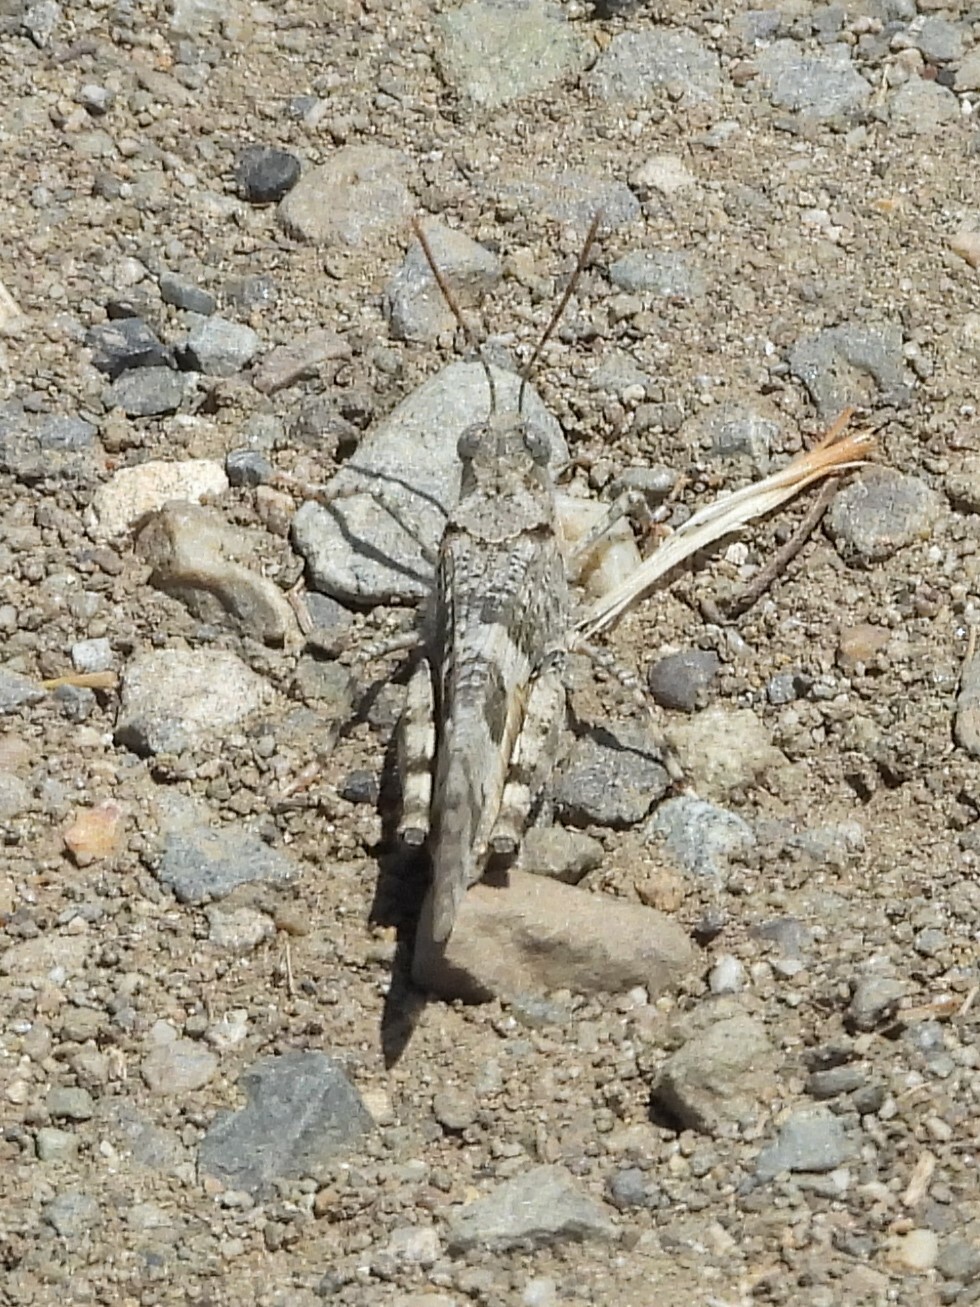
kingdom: Animalia
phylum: Arthropoda
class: Insecta
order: Orthoptera
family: Acrididae
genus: Trimerotropis
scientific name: Trimerotropis pallidipennis
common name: Pallid-winged grasshopper
